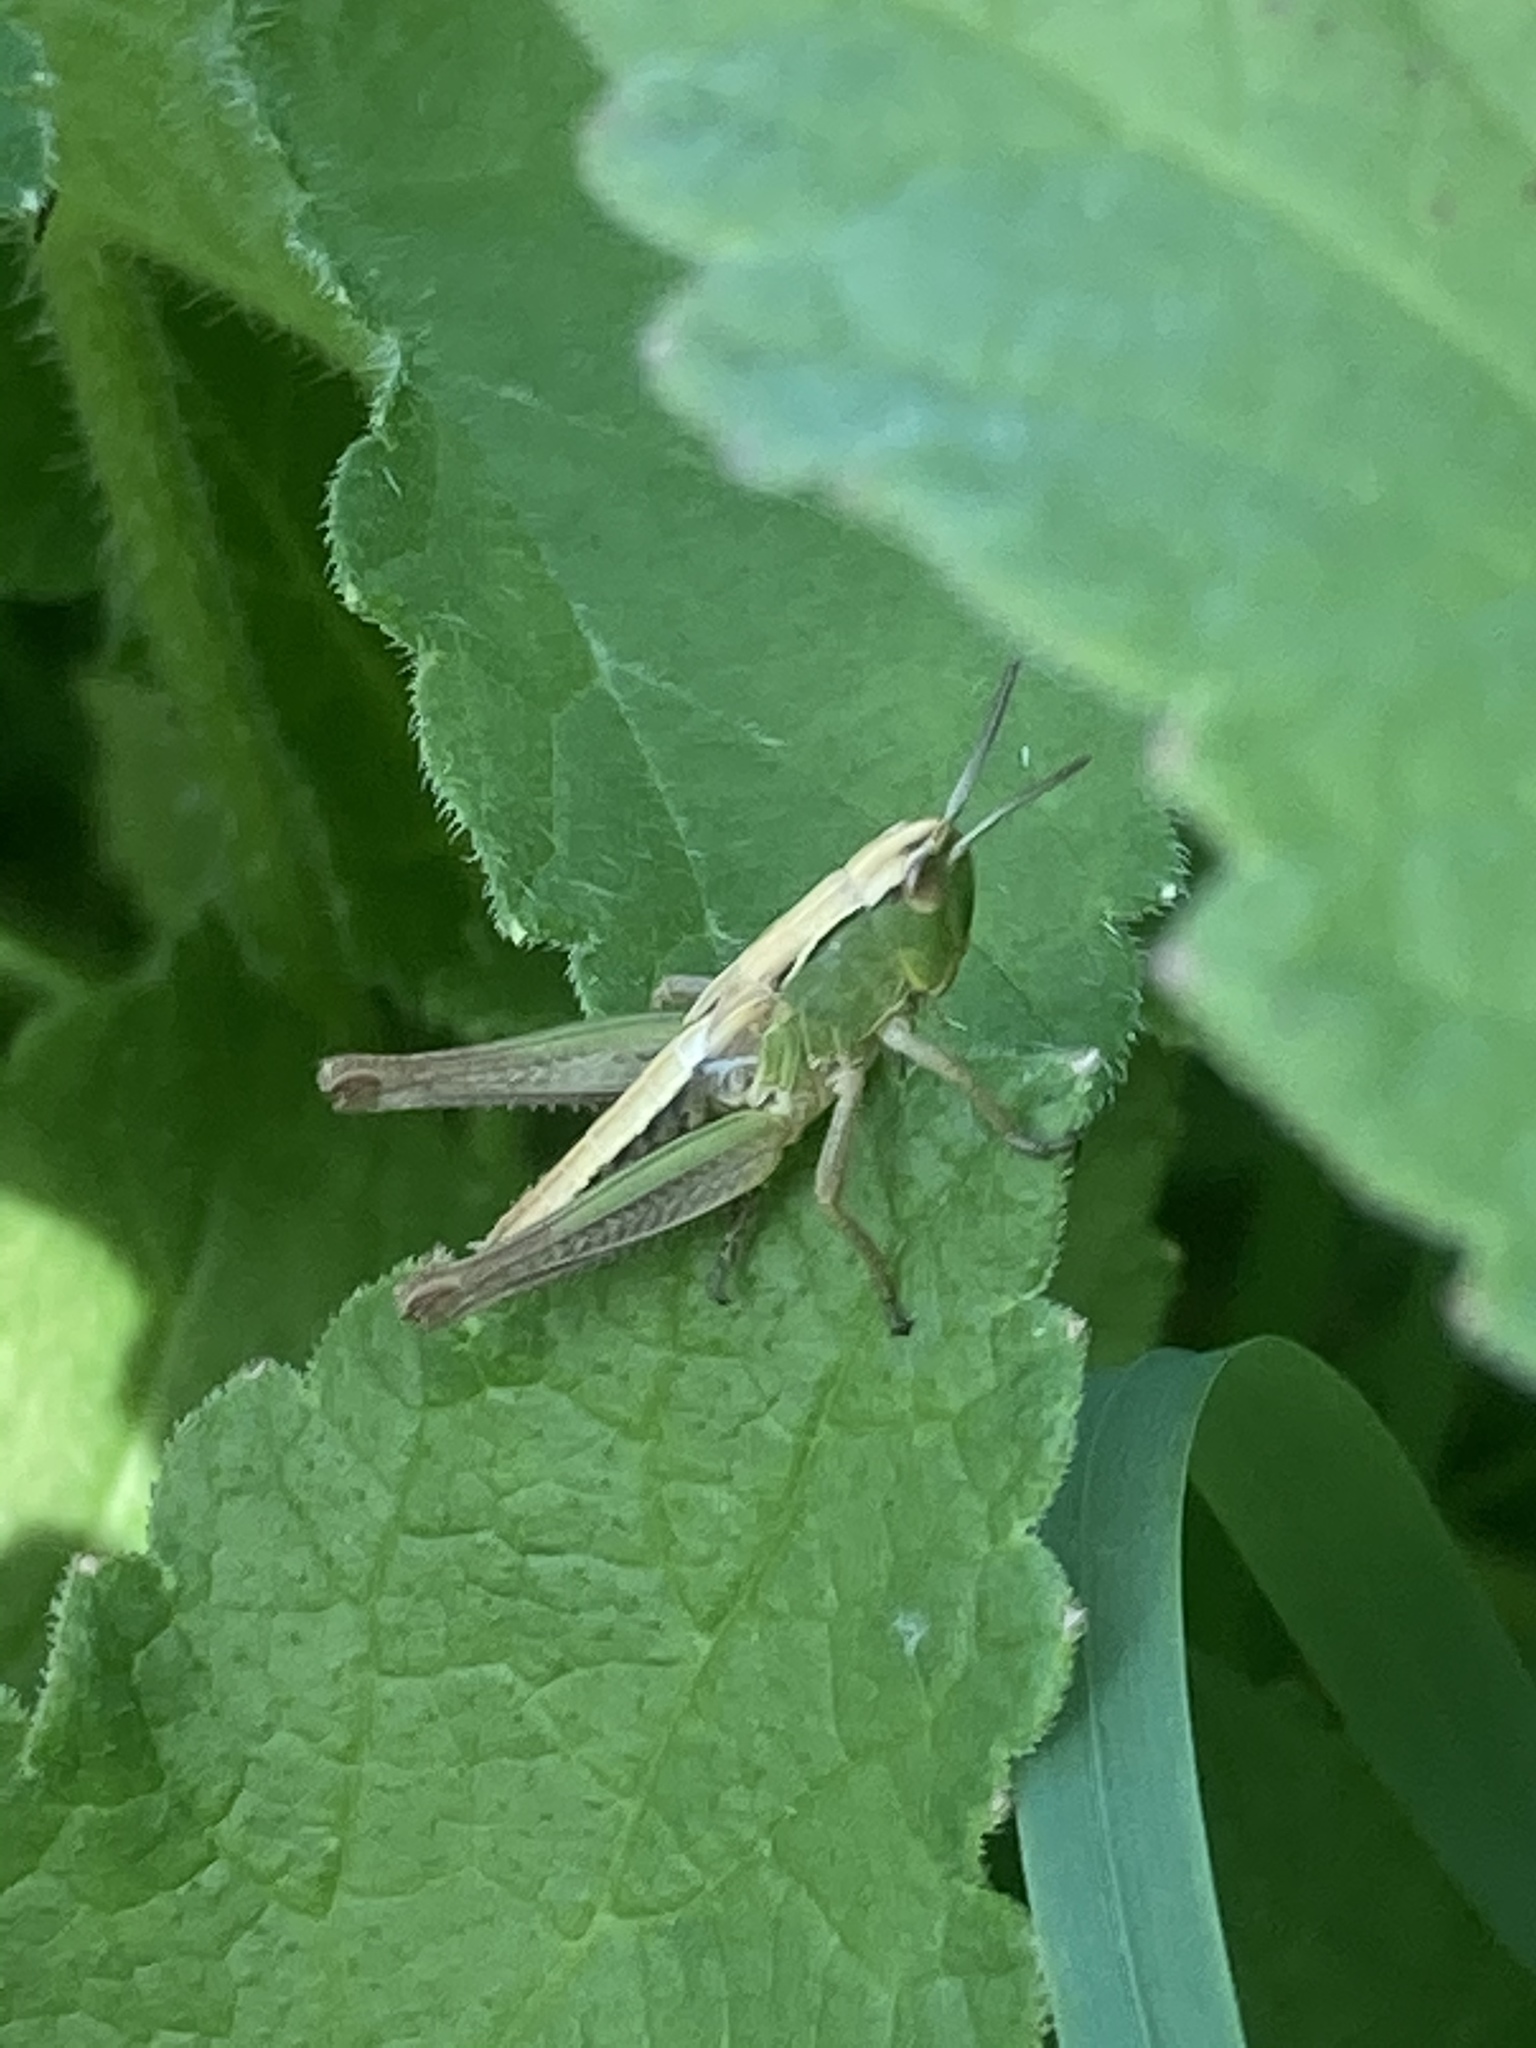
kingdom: Animalia
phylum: Arthropoda
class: Insecta
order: Orthoptera
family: Acrididae
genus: Pseudochorthippus
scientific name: Pseudochorthippus parallelus
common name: Meadow grasshopper
